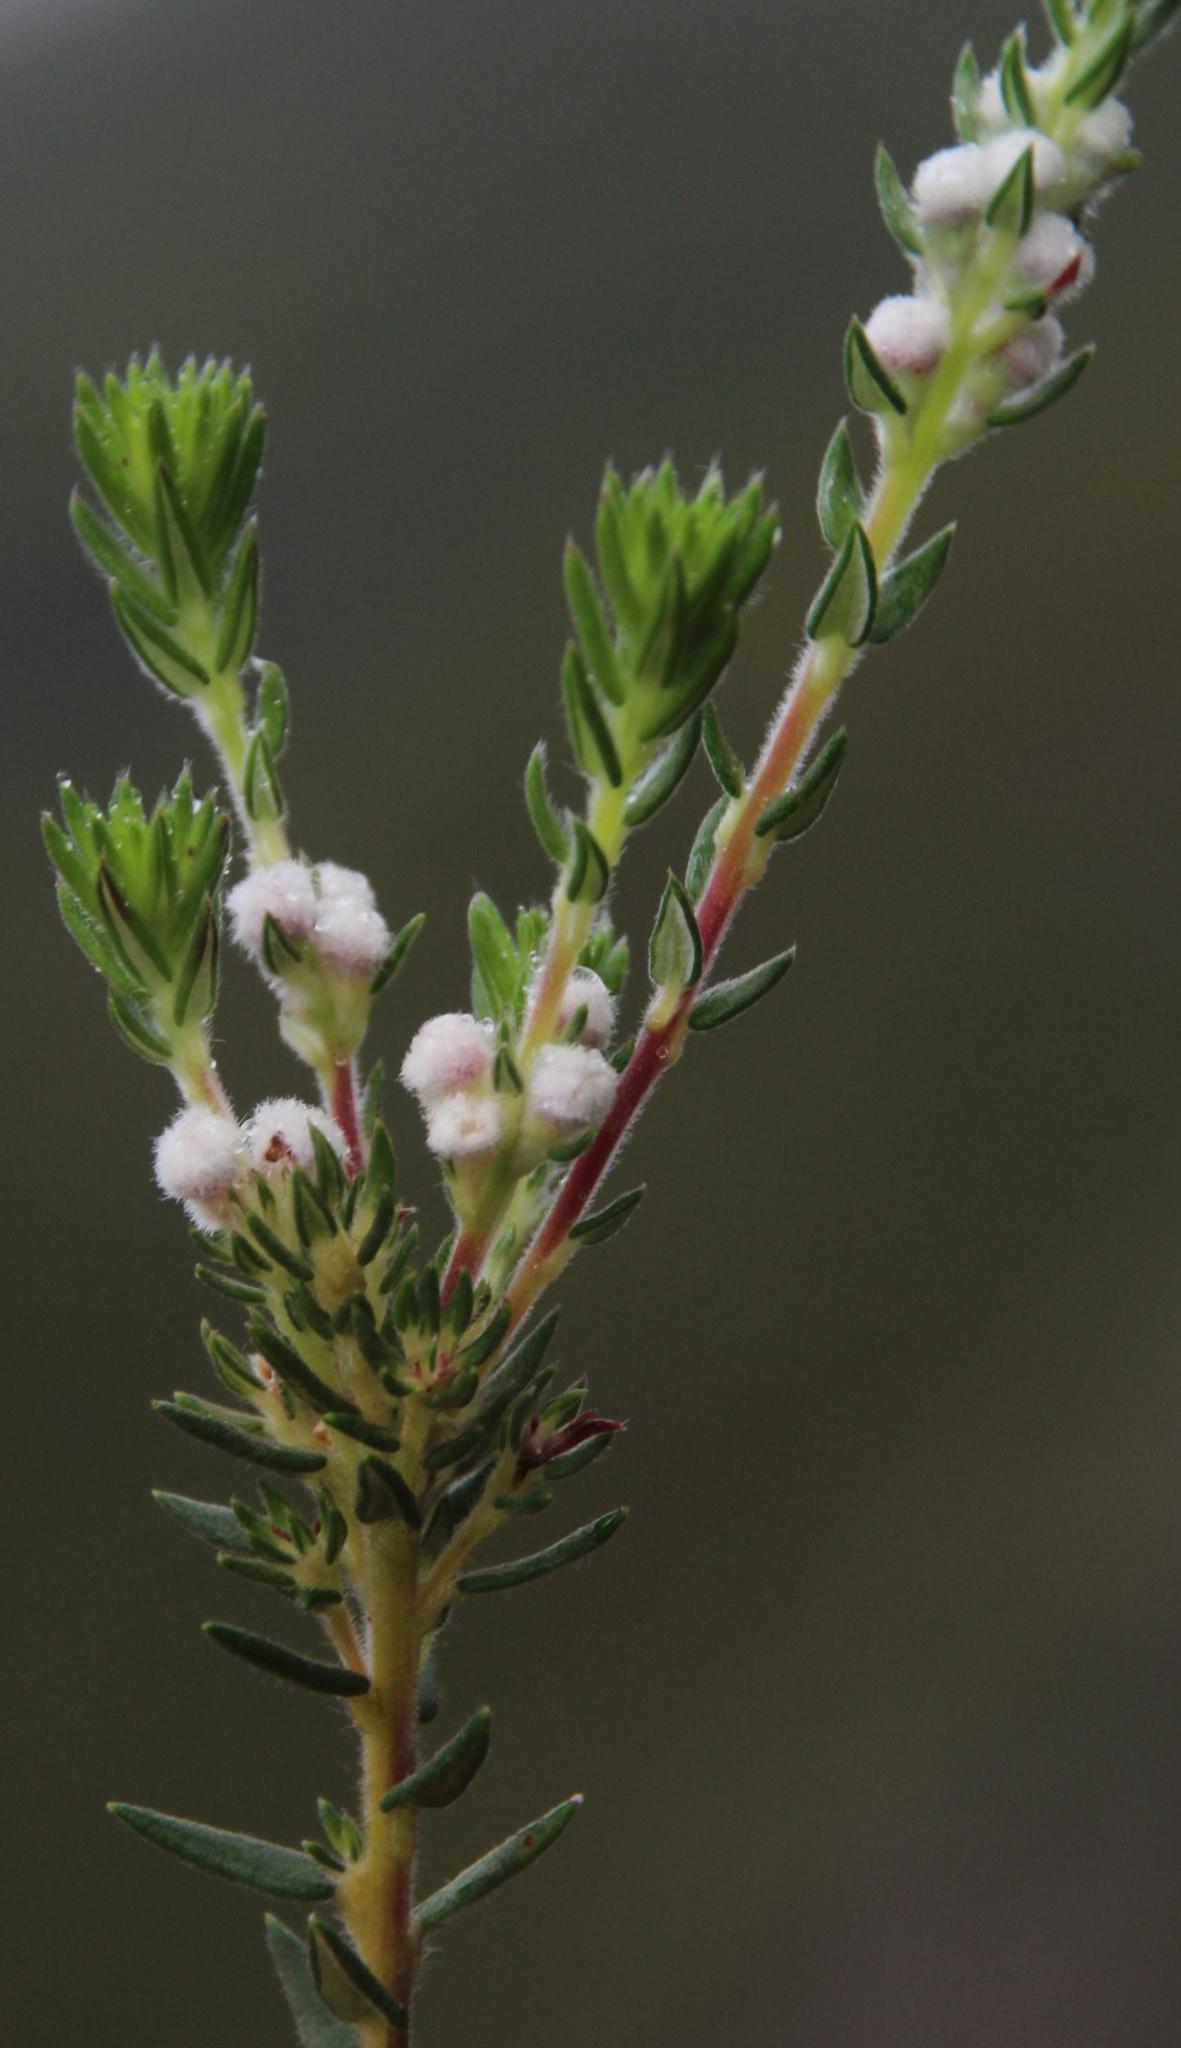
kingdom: Plantae
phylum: Tracheophyta
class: Magnoliopsida
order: Rosales
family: Rhamnaceae
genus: Phylica
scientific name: Phylica pinea
